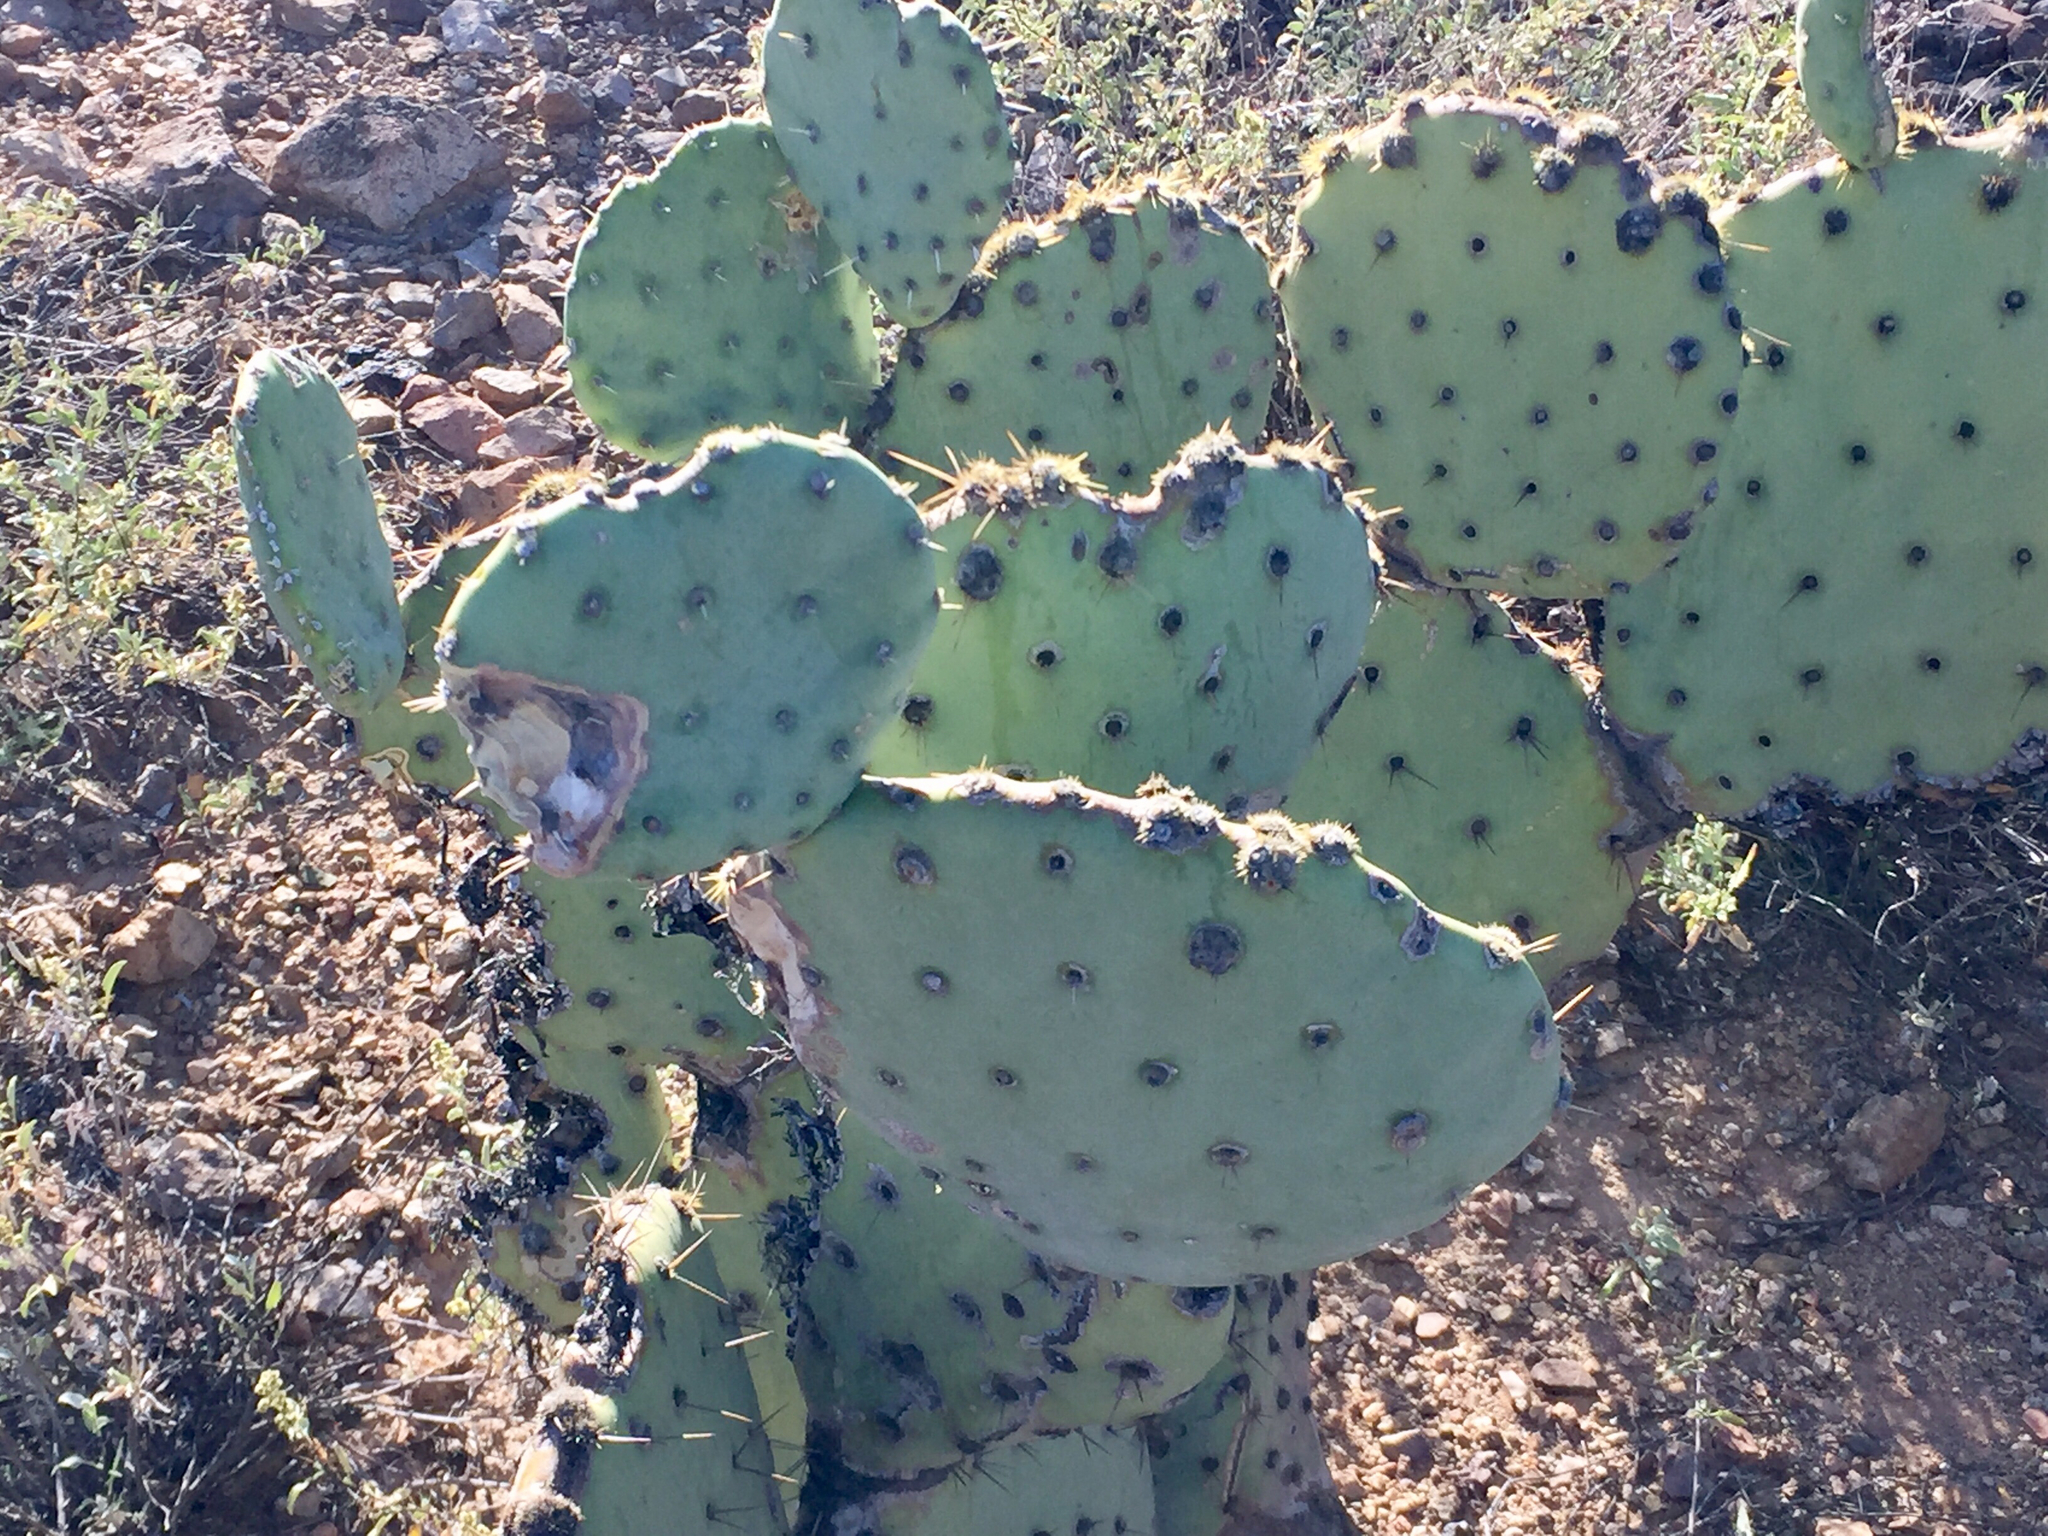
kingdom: Plantae
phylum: Tracheophyta
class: Magnoliopsida
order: Caryophyllales
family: Cactaceae
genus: Opuntia
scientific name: Opuntia chlorotica
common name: Dollar-joint prickly-pear
